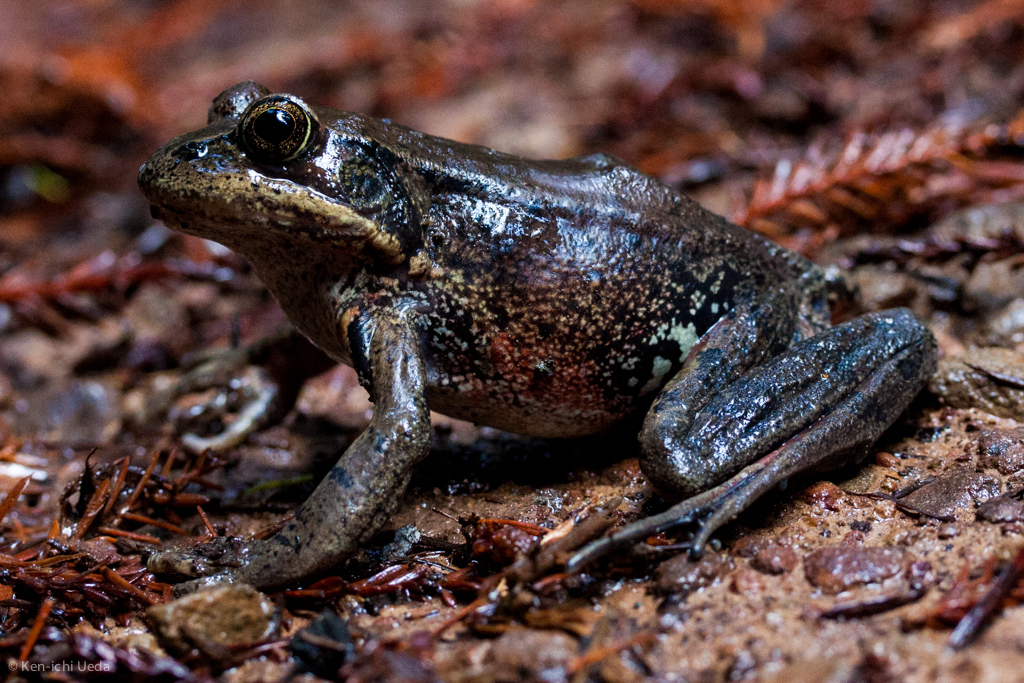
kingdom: Animalia
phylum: Chordata
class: Amphibia
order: Anura
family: Ranidae
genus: Rana
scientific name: Rana aurora
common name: Red-legged frog
